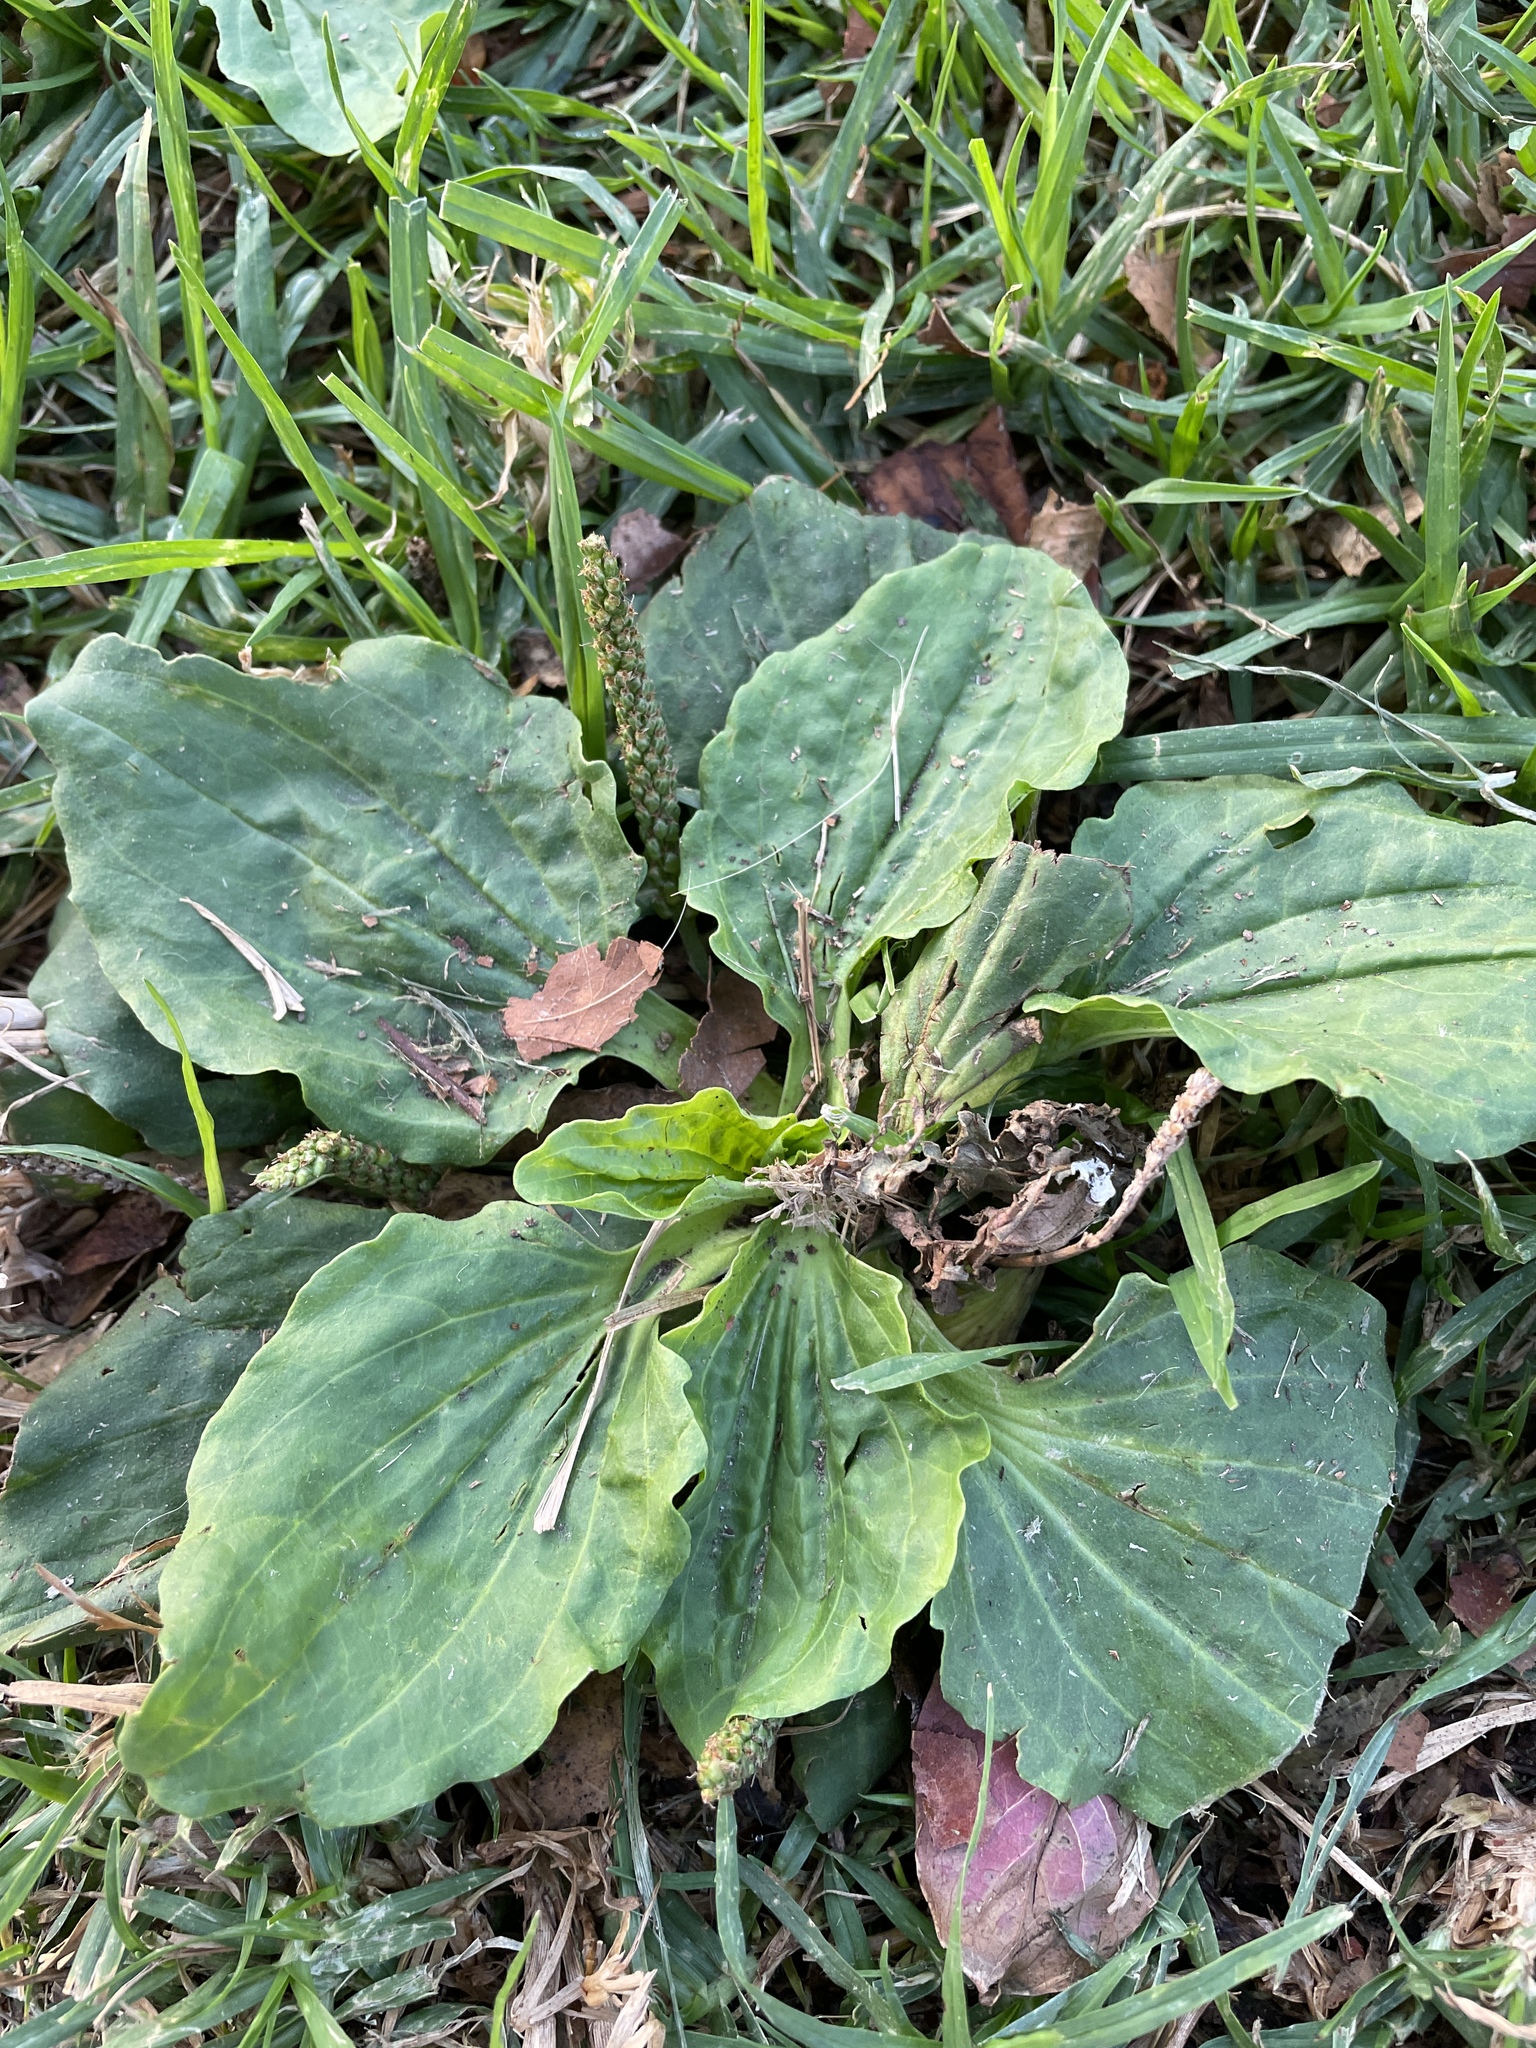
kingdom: Plantae
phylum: Tracheophyta
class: Magnoliopsida
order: Lamiales
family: Plantaginaceae
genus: Plantago
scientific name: Plantago major
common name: Common plantain
